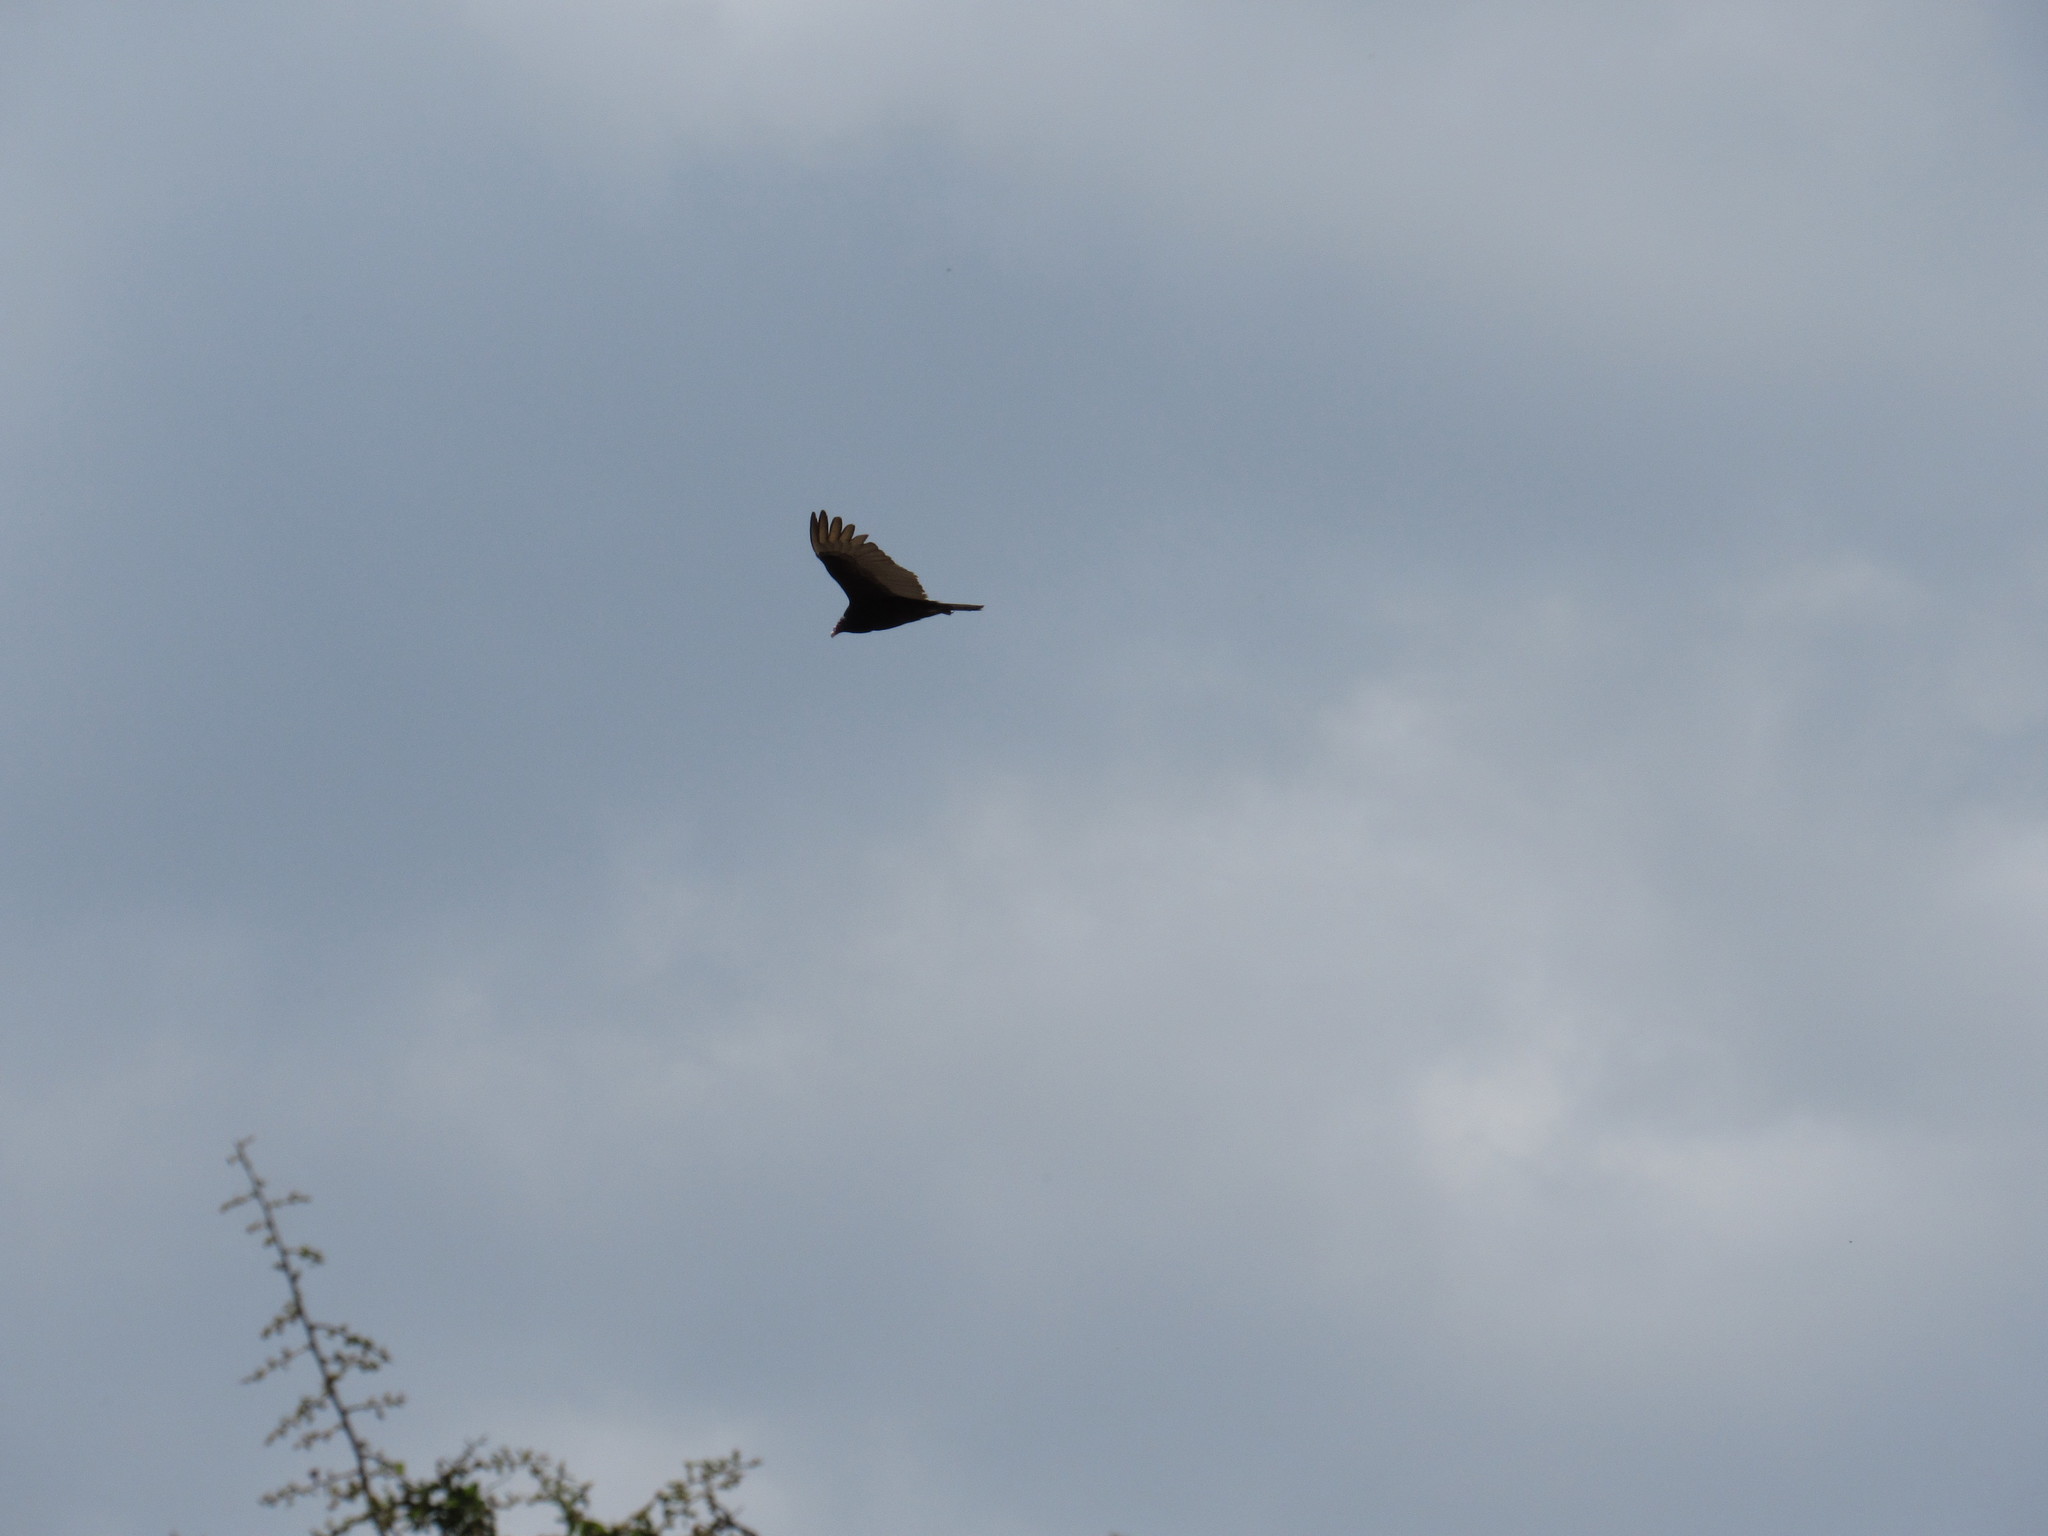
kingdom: Animalia
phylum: Chordata
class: Aves
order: Accipitriformes
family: Cathartidae
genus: Cathartes
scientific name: Cathartes aura
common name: Turkey vulture
